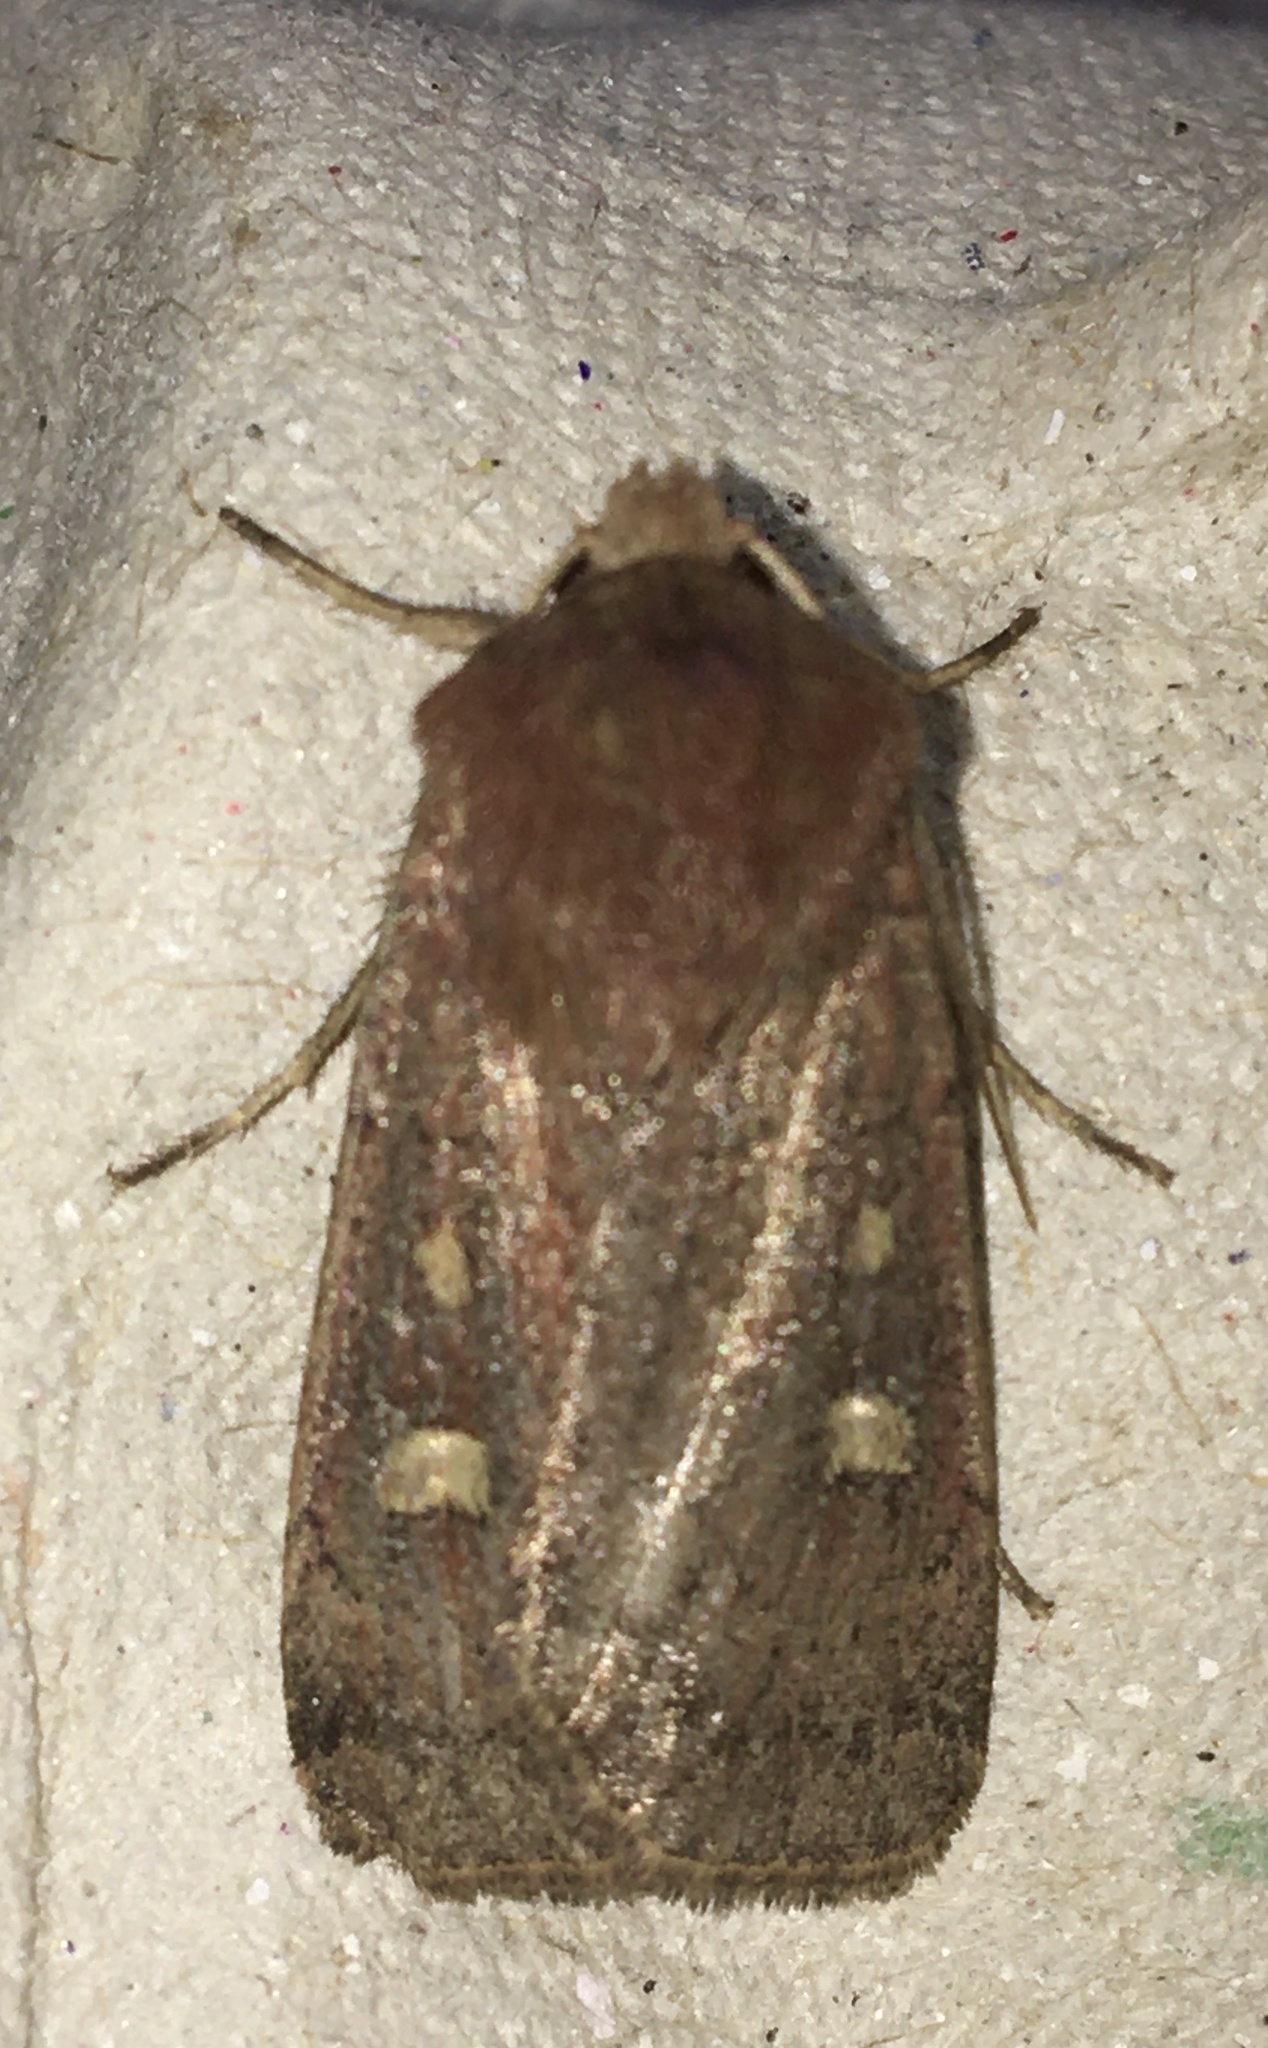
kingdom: Animalia
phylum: Arthropoda
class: Insecta
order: Lepidoptera
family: Noctuidae
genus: Xestia
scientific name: Xestia xanthographa
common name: Square-spot rustic
